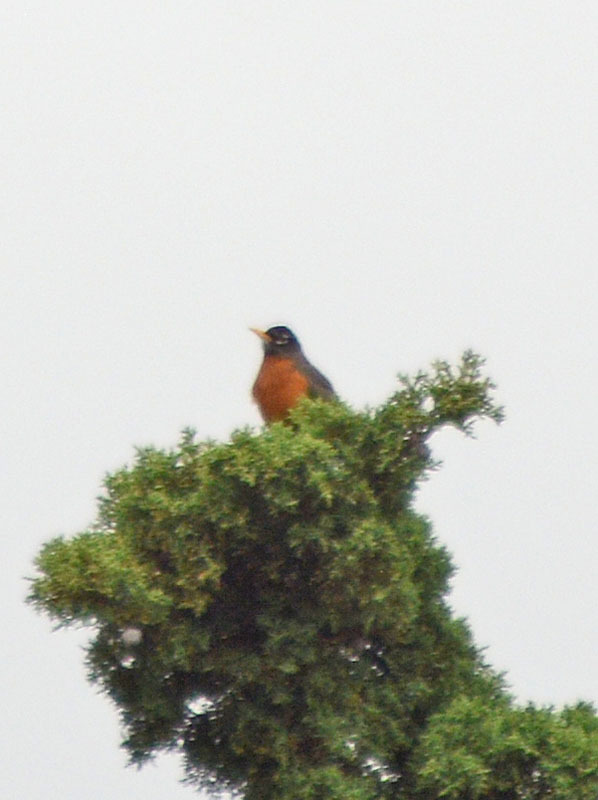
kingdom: Animalia
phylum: Chordata
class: Aves
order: Passeriformes
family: Turdidae
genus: Turdus
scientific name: Turdus migratorius
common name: American robin
